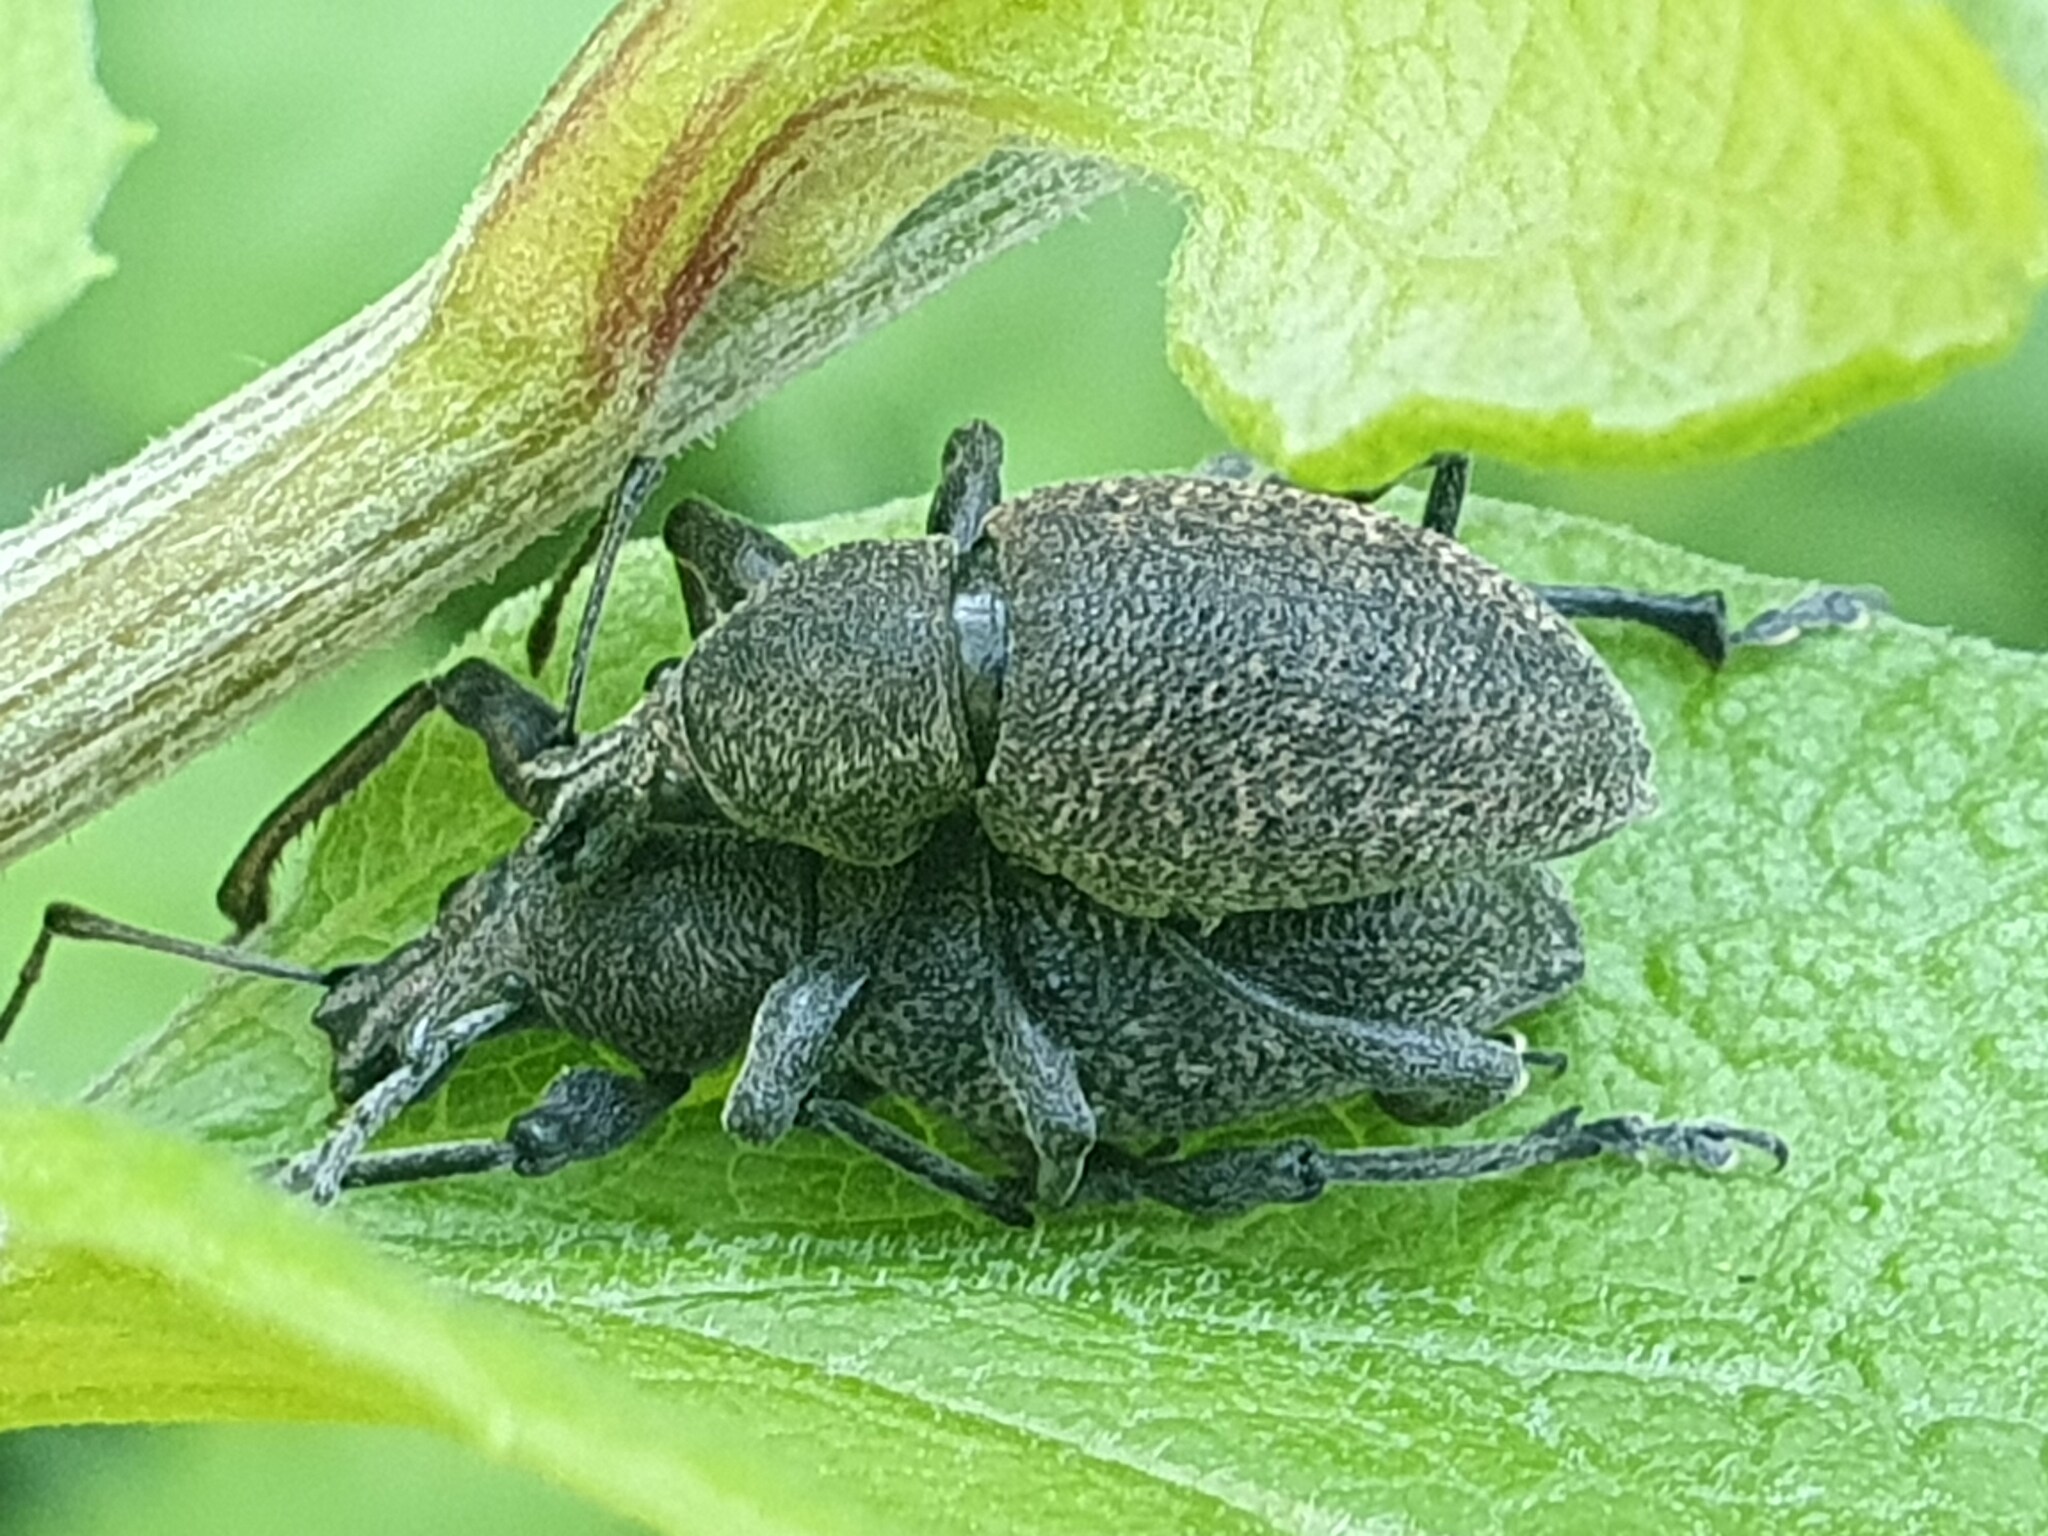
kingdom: Animalia
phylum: Arthropoda
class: Insecta
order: Coleoptera
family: Curculionidae
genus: Otiorhynchus
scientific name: Otiorhynchus bisulcatus
